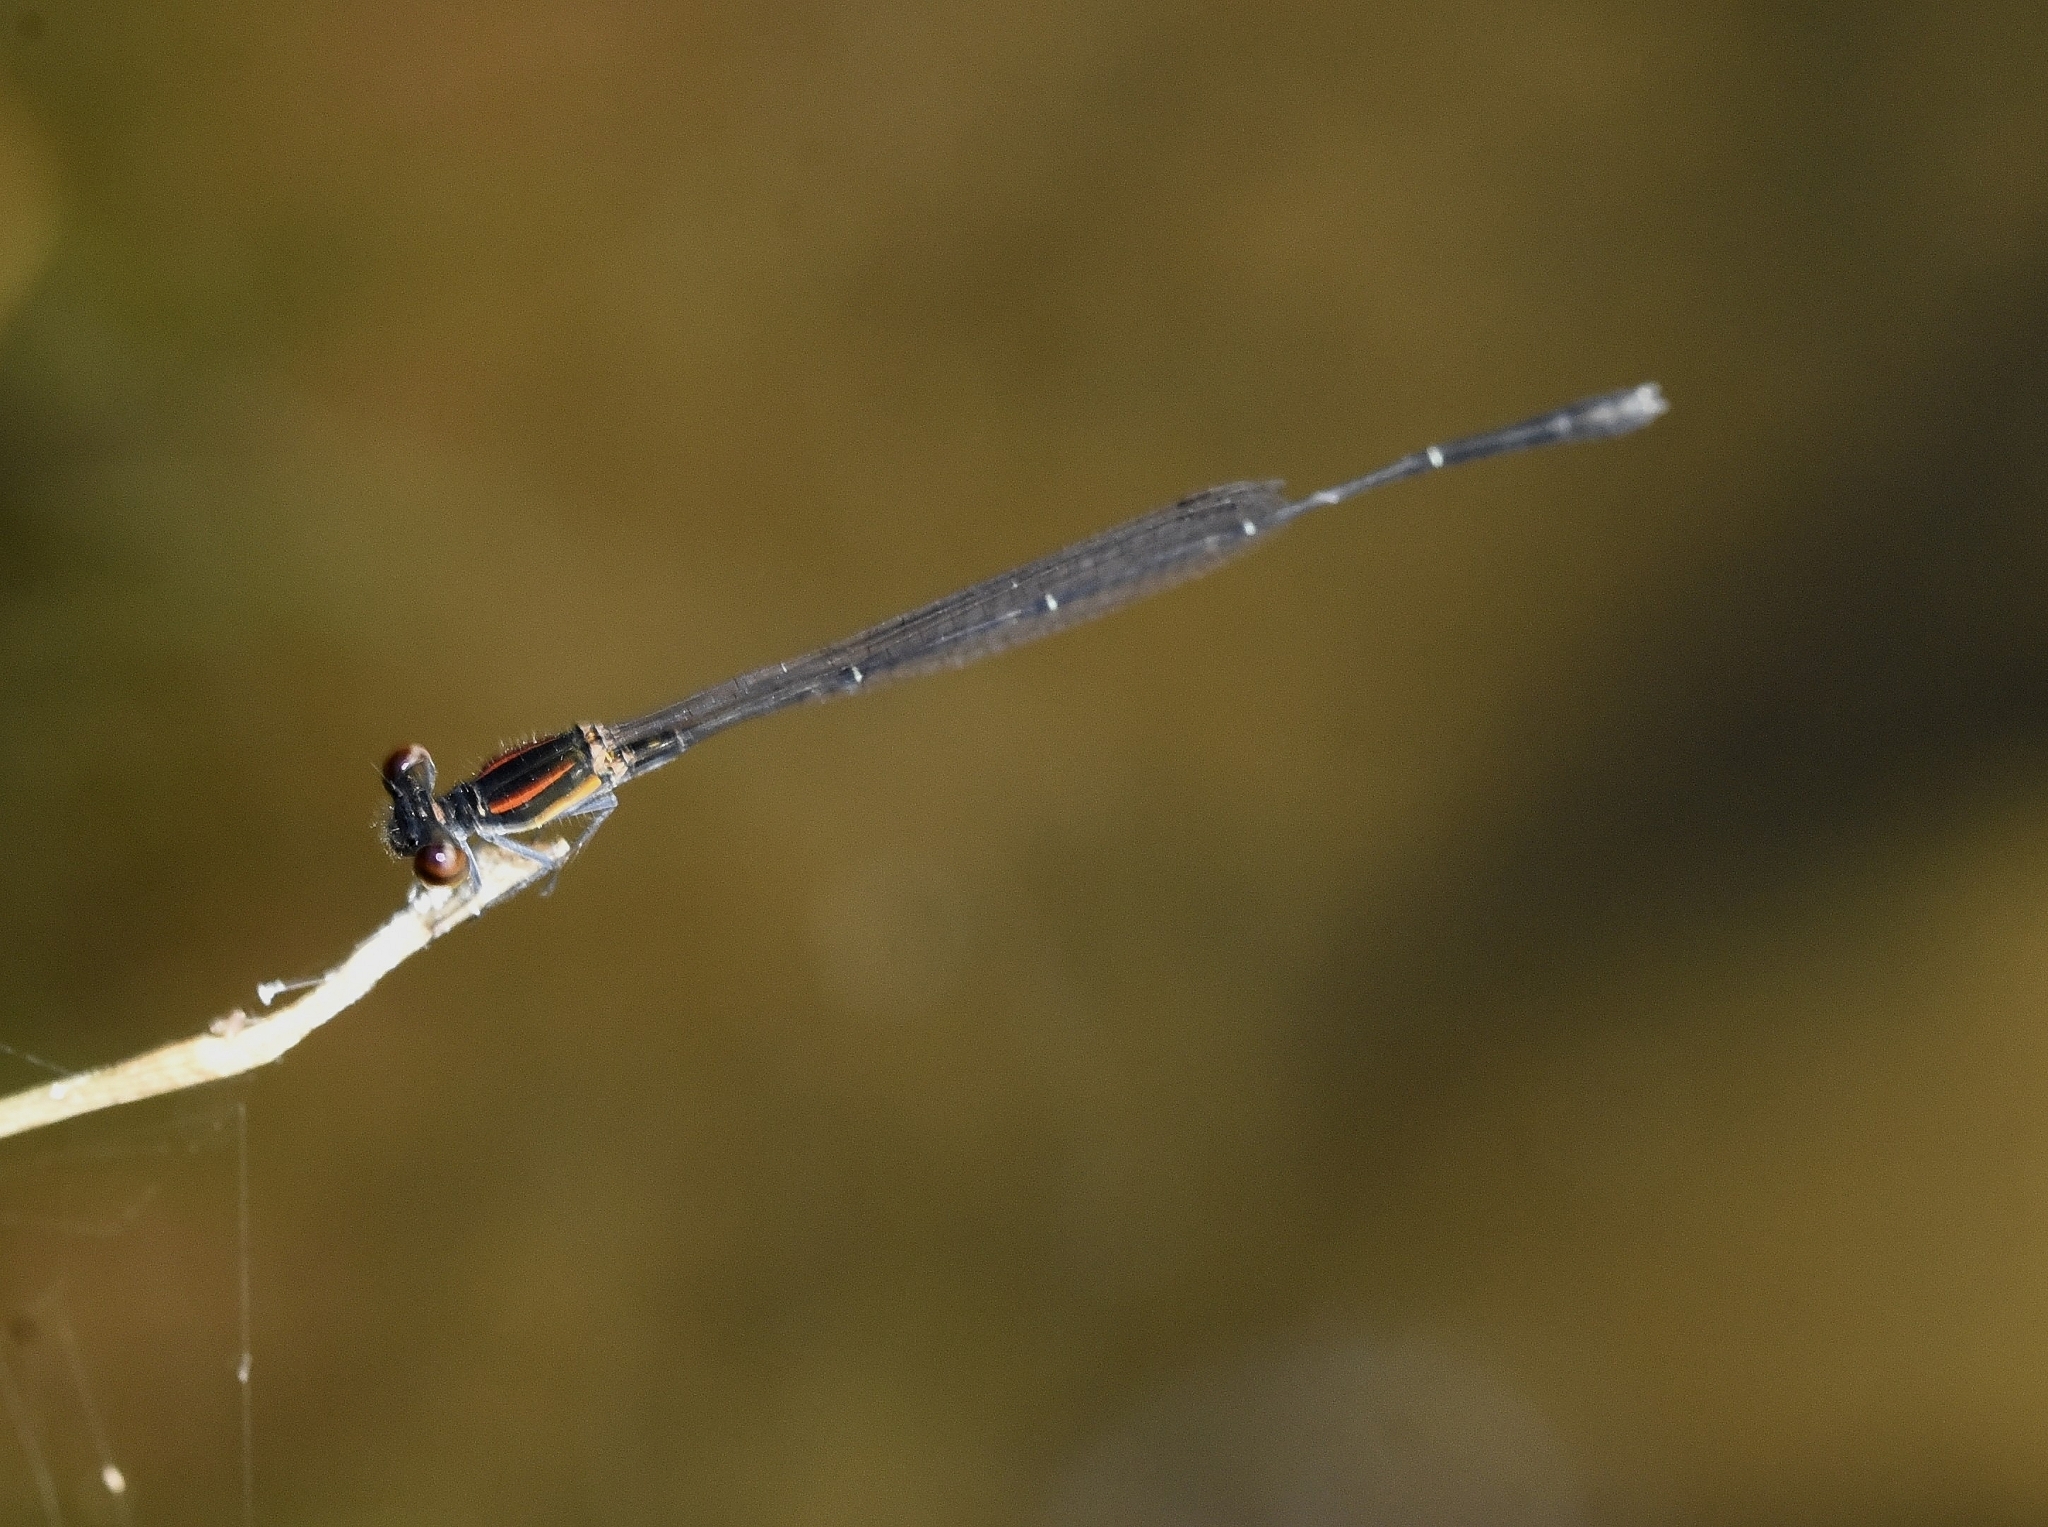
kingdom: Animalia
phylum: Arthropoda
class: Insecta
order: Odonata
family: Platycnemididae
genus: Prodasineura
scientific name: Prodasineura verticalis
